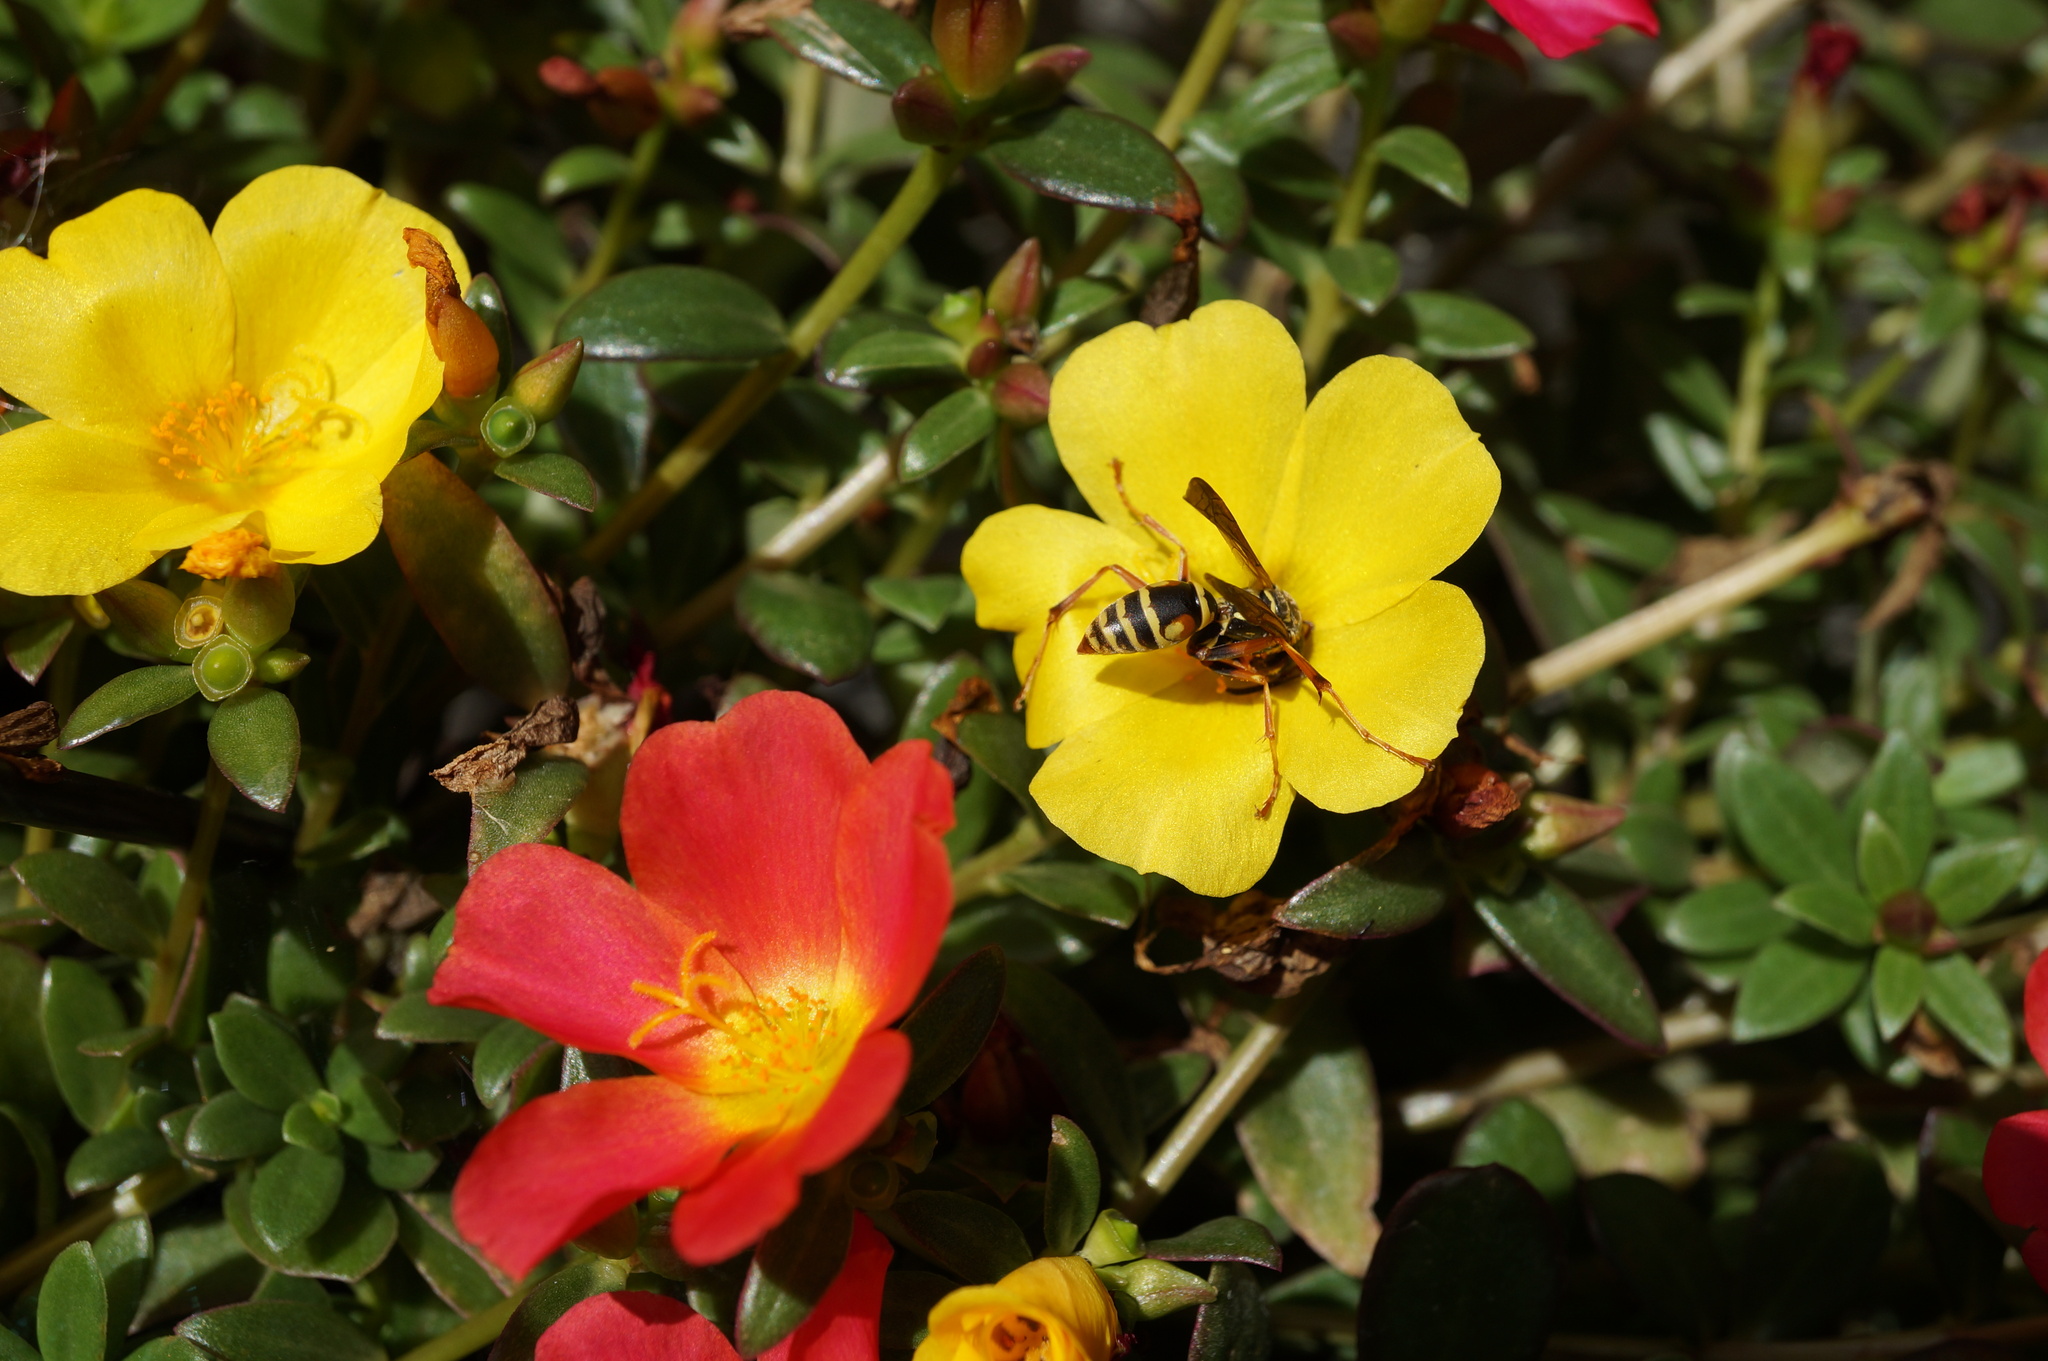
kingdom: Animalia
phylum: Arthropoda
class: Insecta
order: Hymenoptera
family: Eumenidae
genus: Polistes
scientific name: Polistes fuscatus
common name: Dark paper wasp
